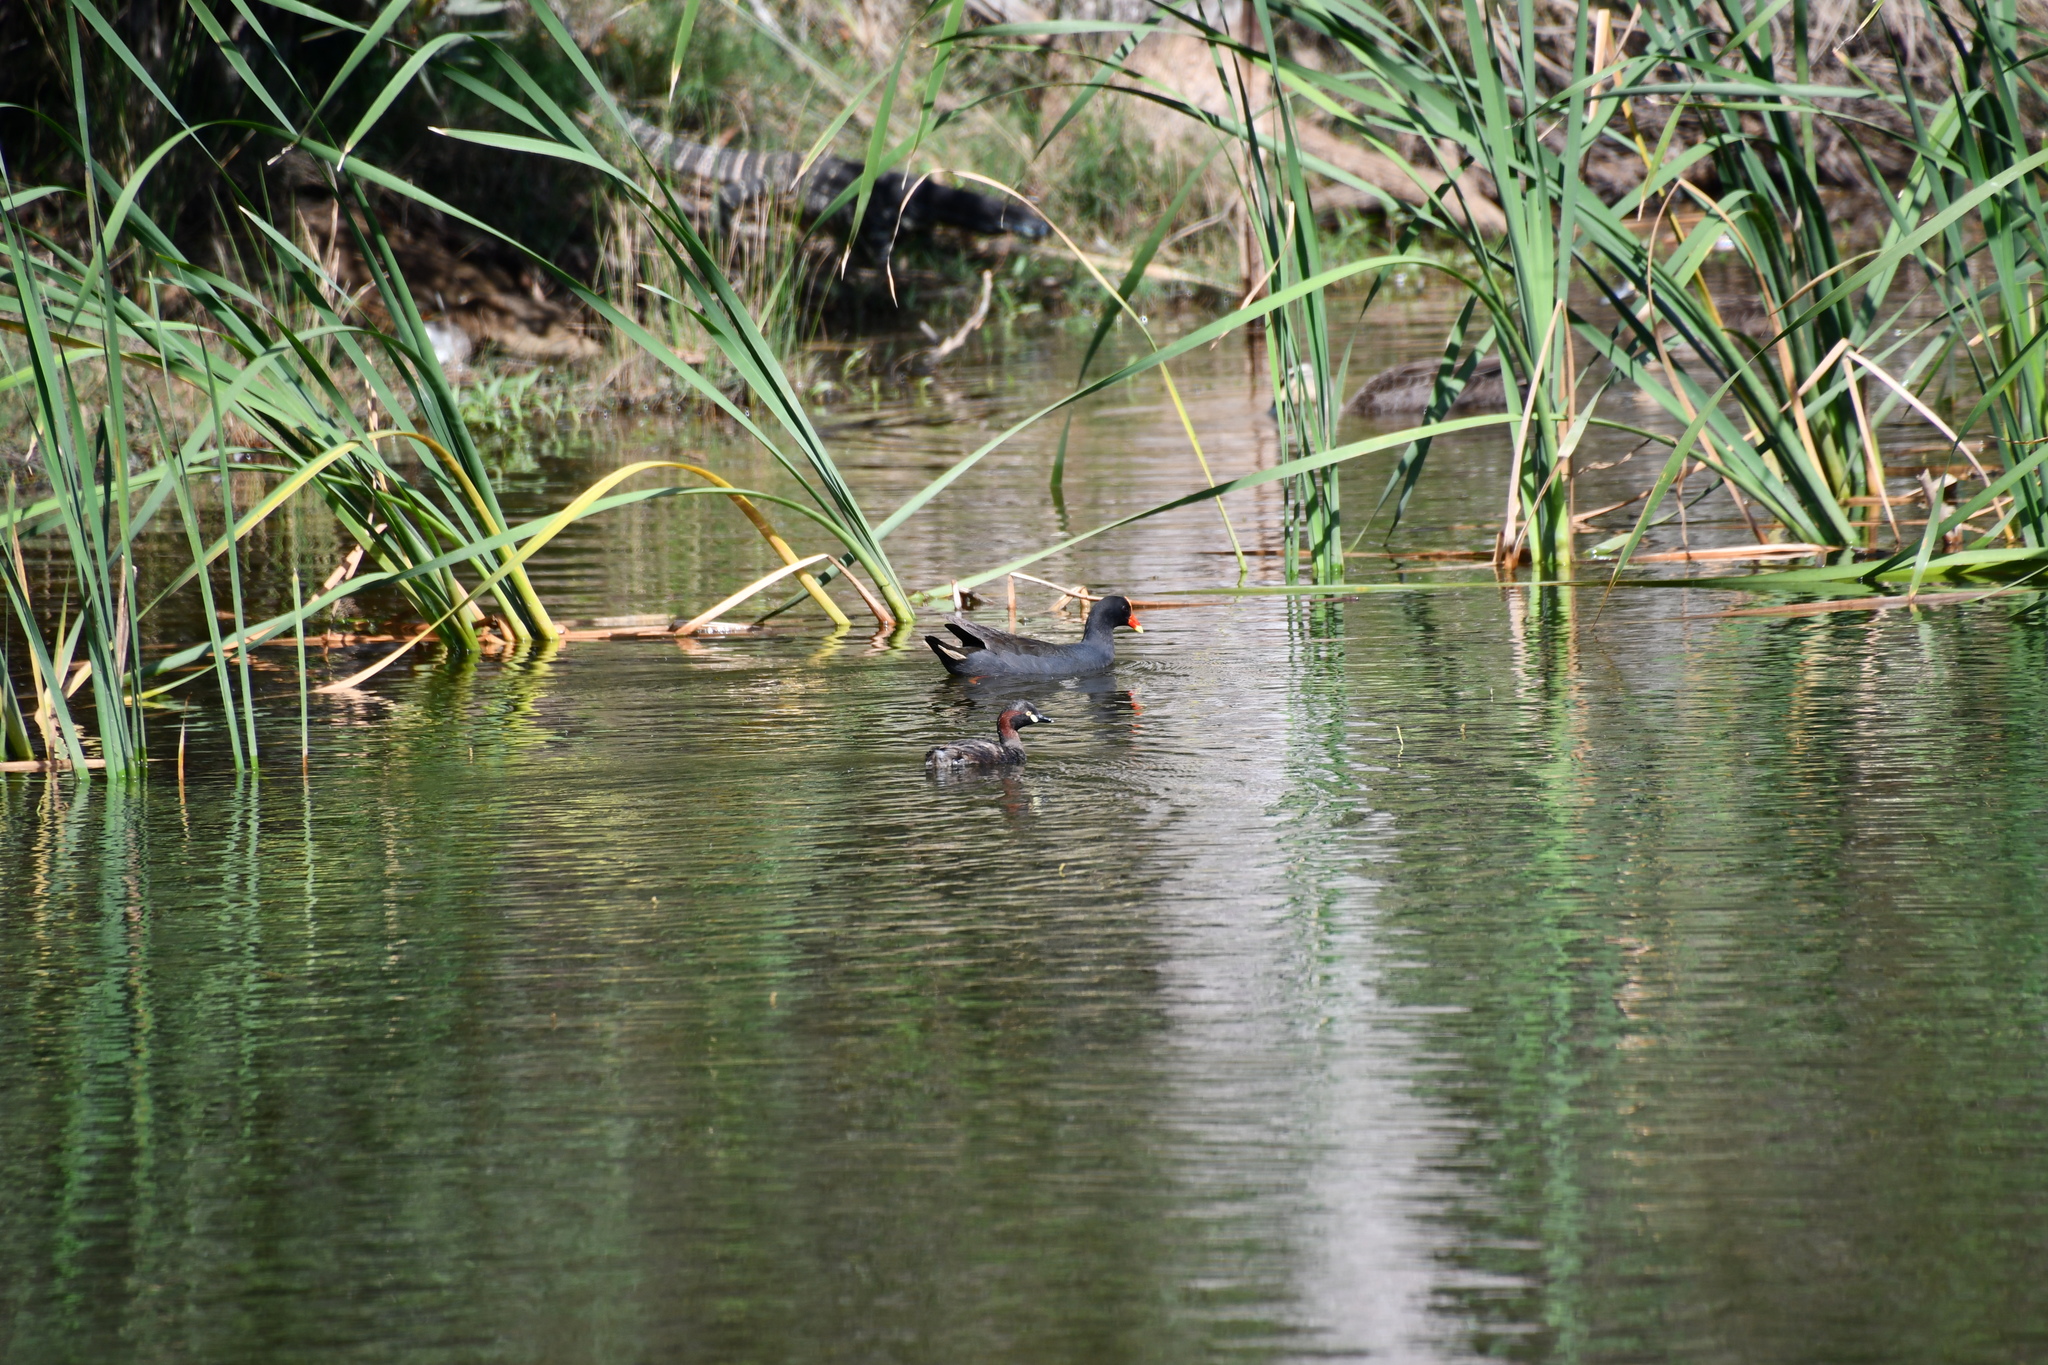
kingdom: Animalia
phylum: Chordata
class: Squamata
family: Varanidae
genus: Varanus
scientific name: Varanus varius
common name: Lace monitor
